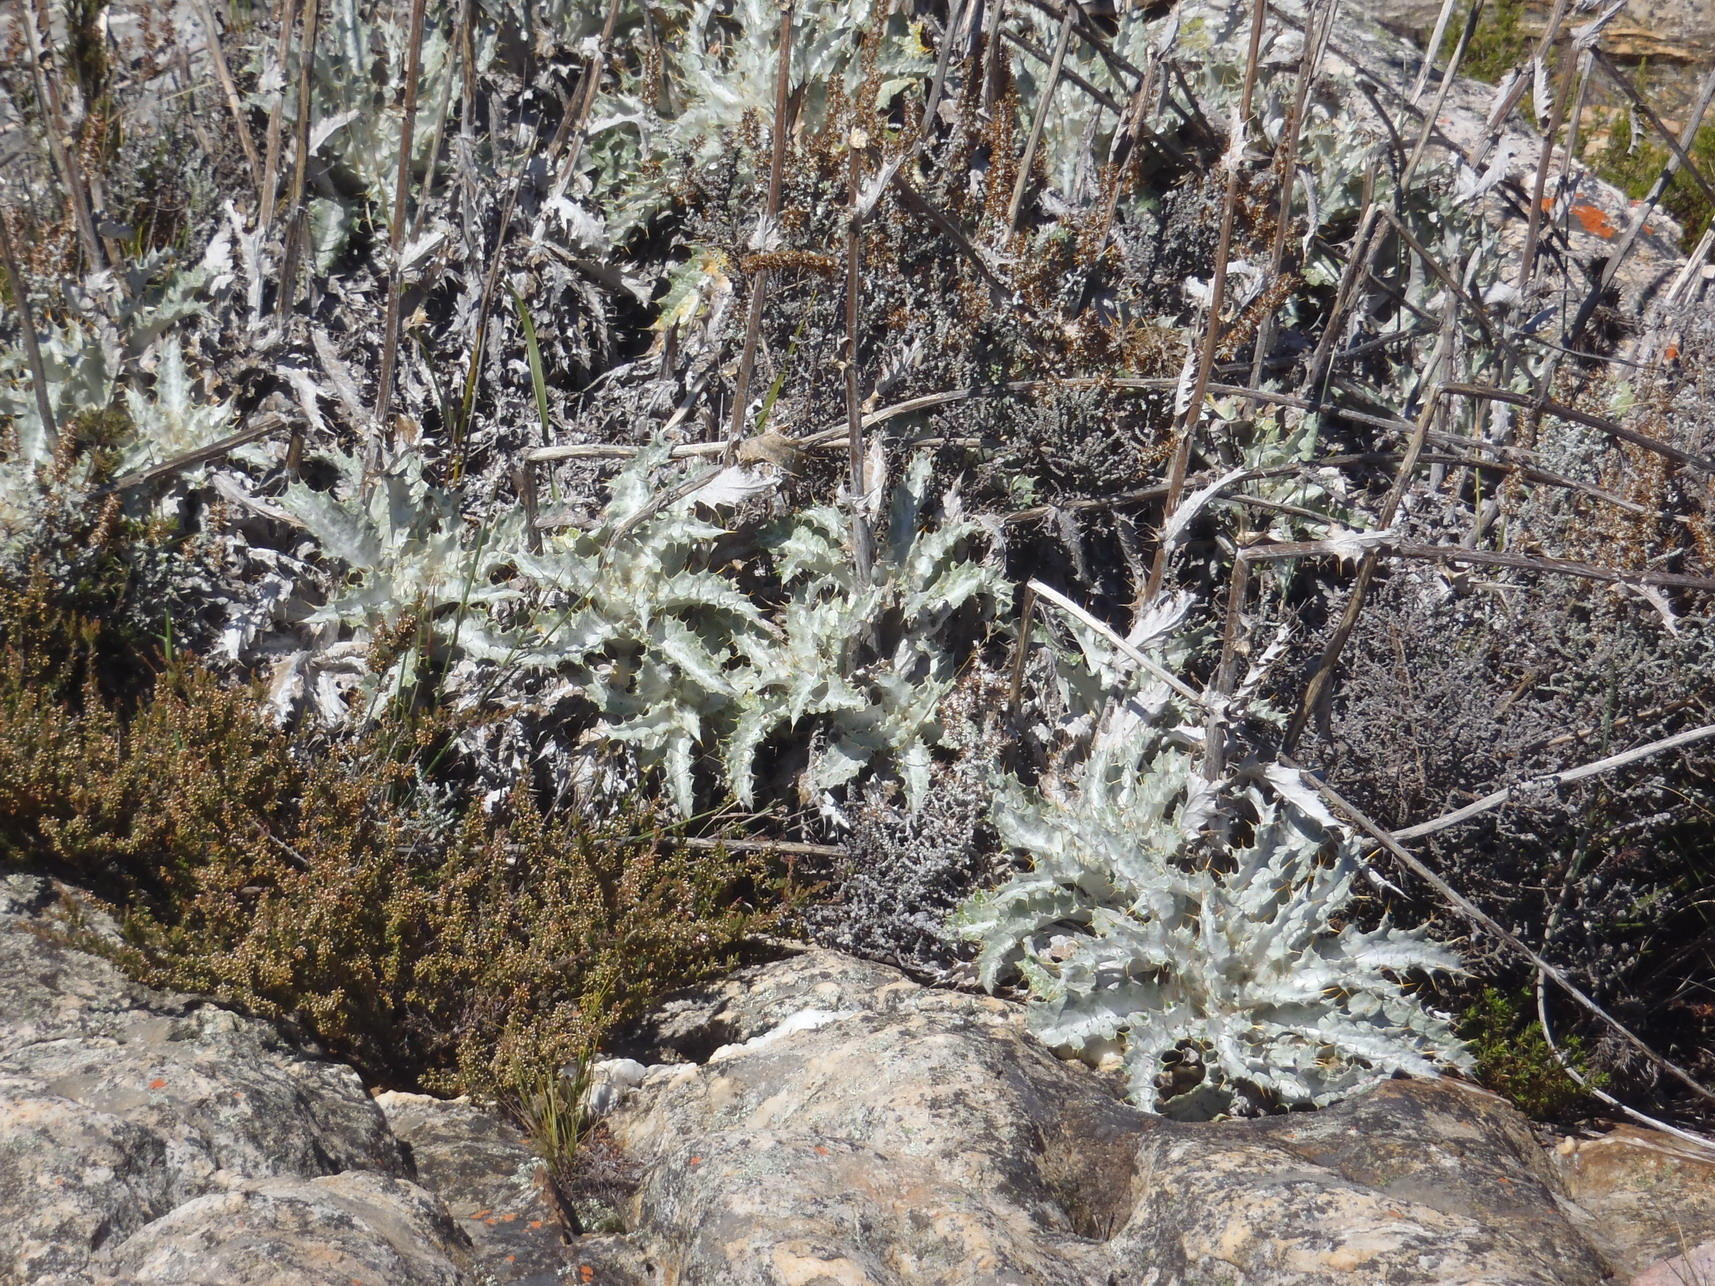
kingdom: Plantae
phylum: Tracheophyta
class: Magnoliopsida
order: Asterales
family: Asteraceae
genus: Berkheya
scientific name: Berkheya francisci
